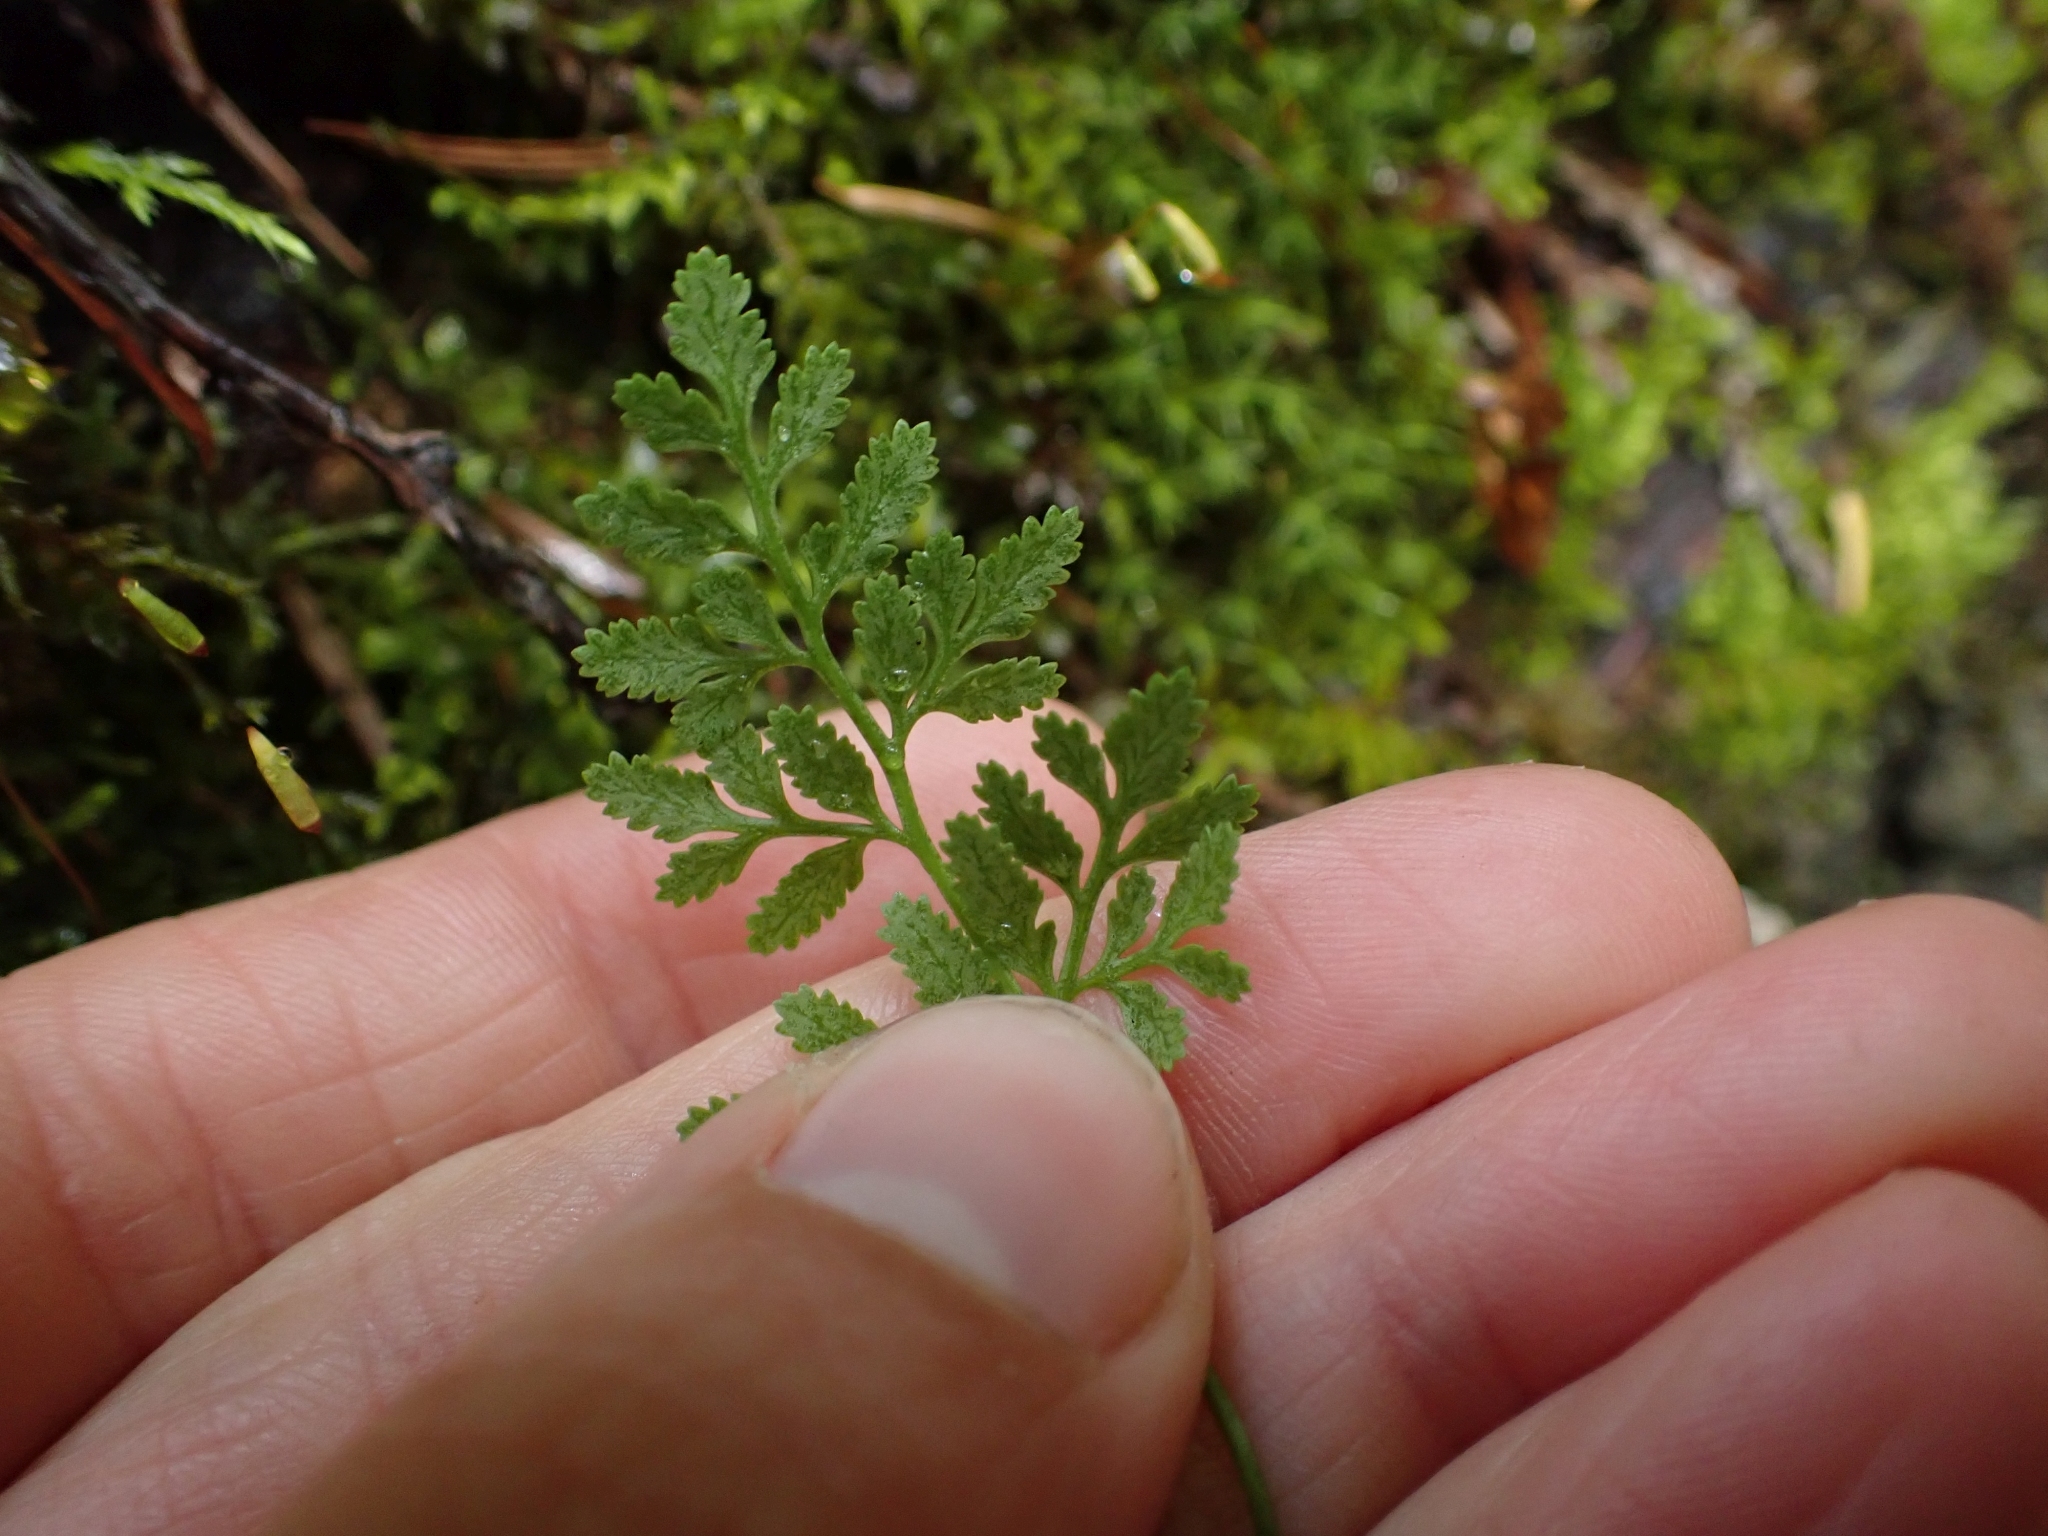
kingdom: Plantae
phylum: Tracheophyta
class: Polypodiopsida
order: Polypodiales
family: Pteridaceae
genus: Cryptogramma
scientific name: Cryptogramma acrostichoides
